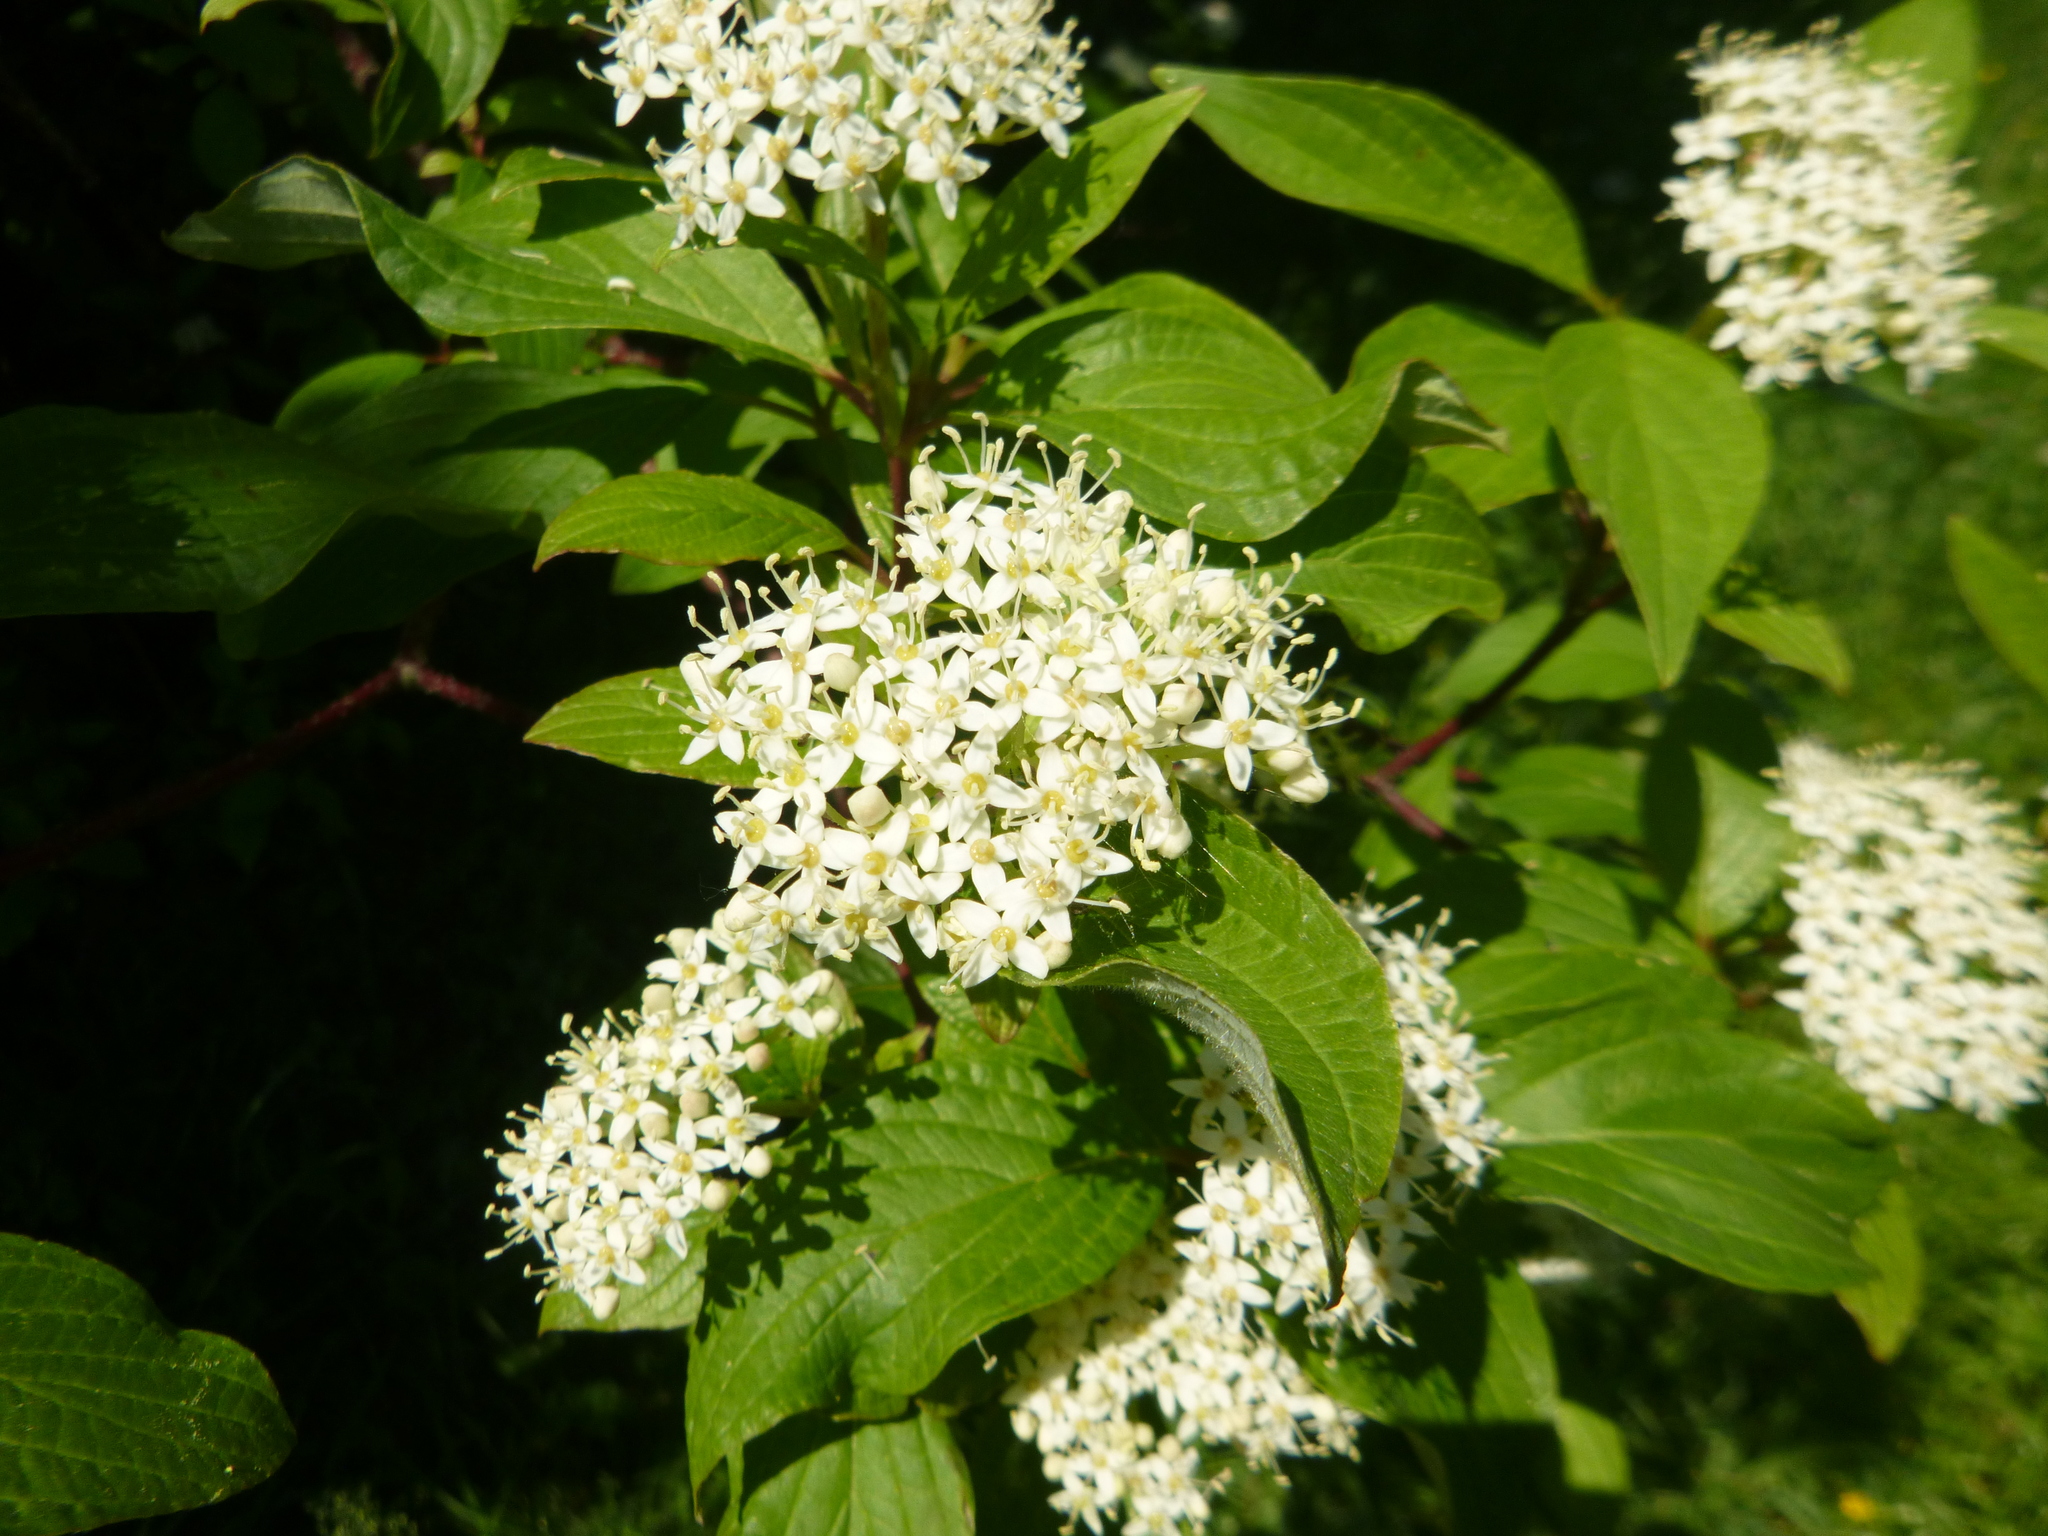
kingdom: Plantae
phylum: Tracheophyta
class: Magnoliopsida
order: Cornales
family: Cornaceae
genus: Cornus
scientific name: Cornus sanguinea
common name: Dogwood
